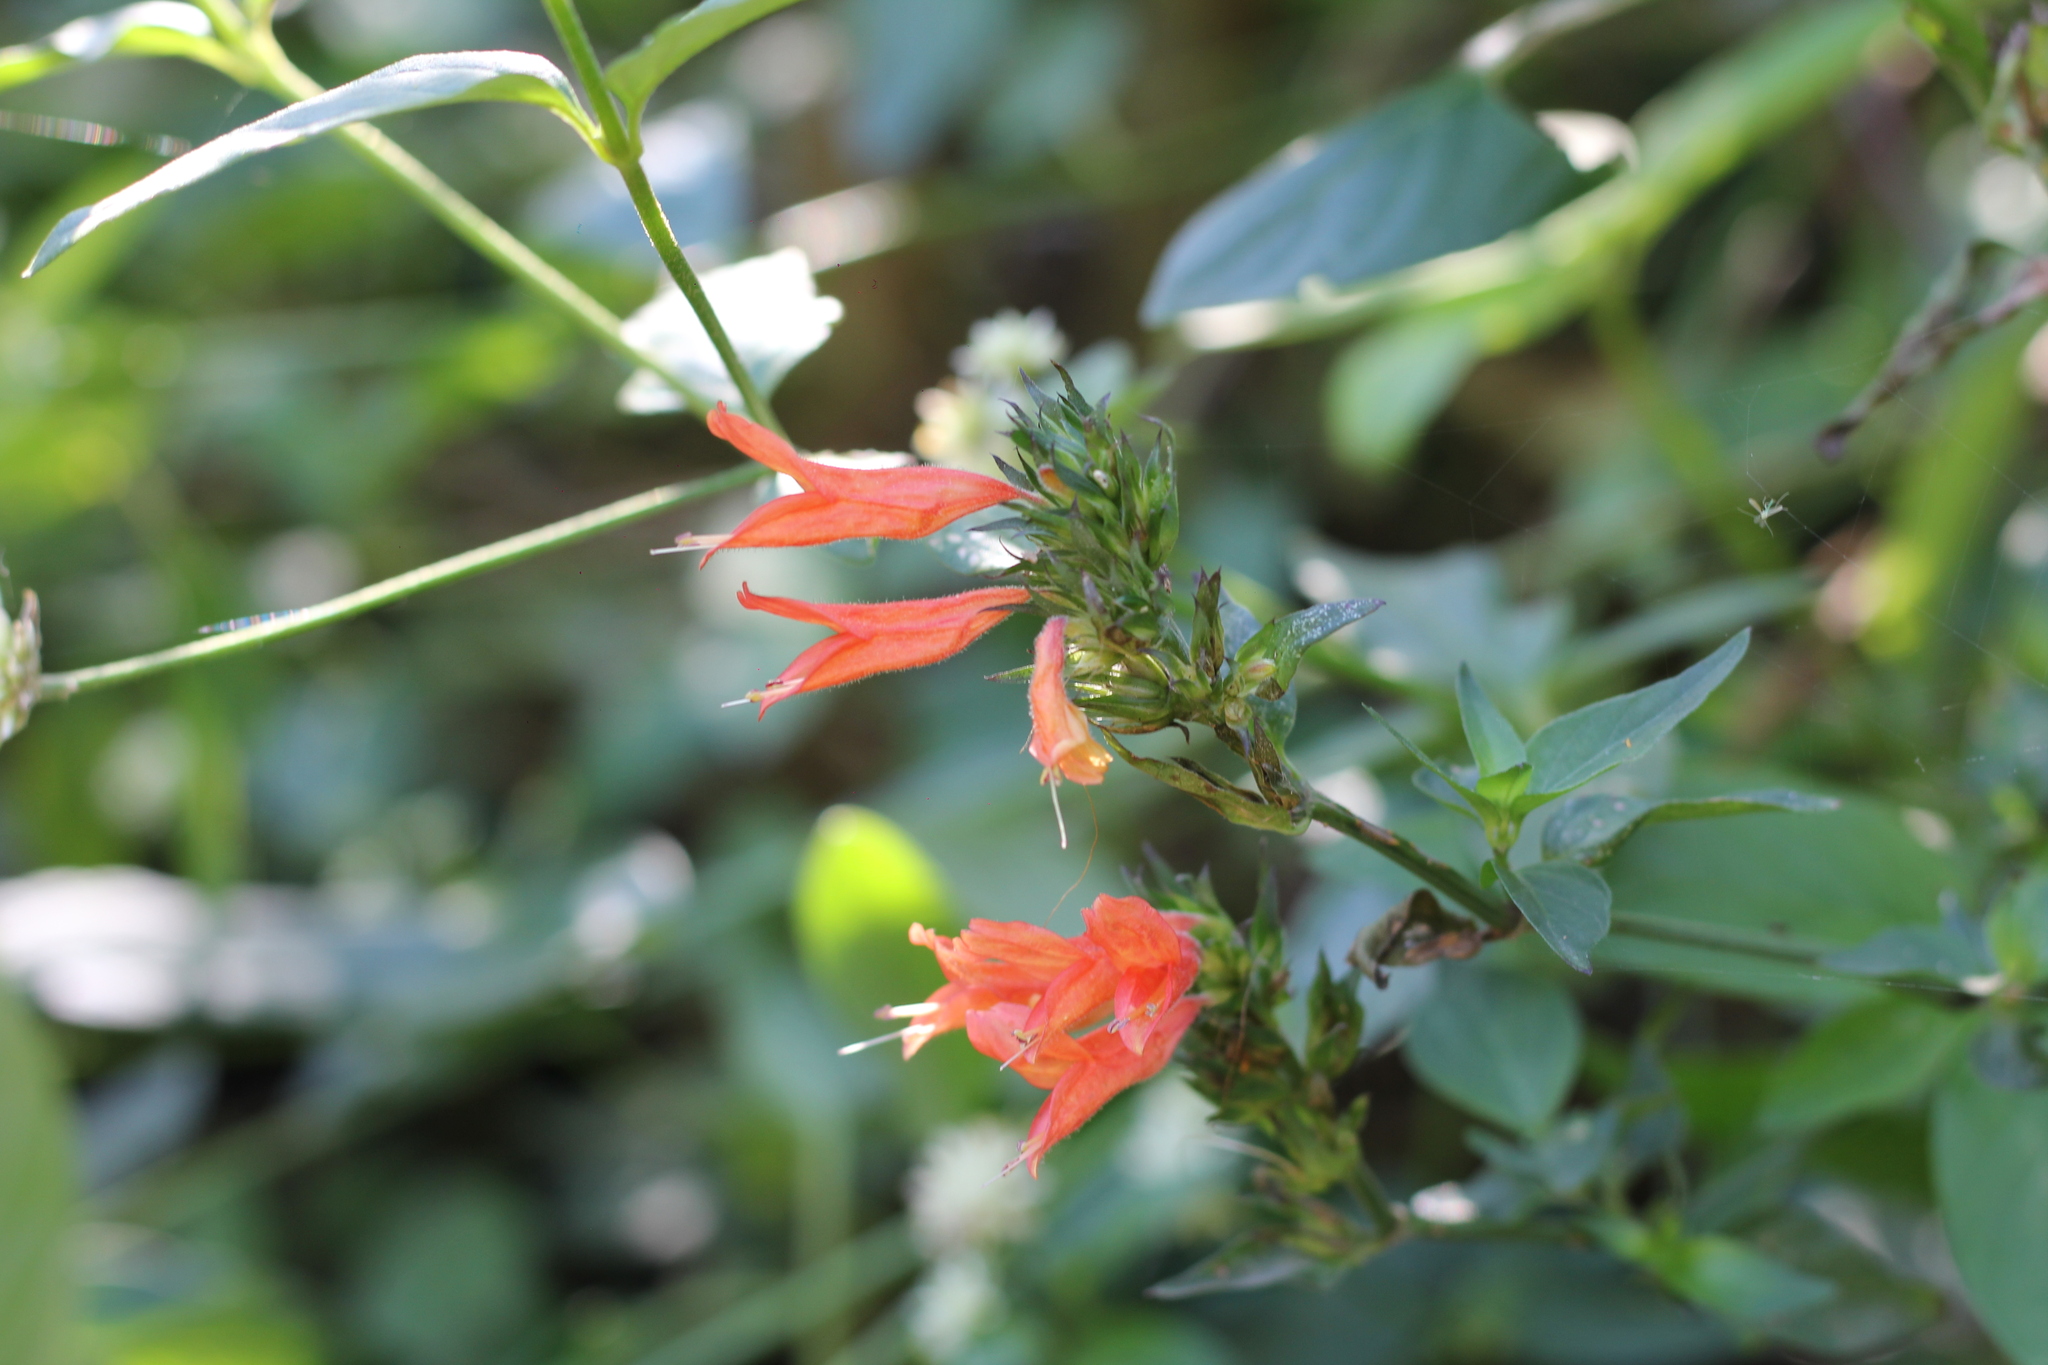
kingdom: Plantae
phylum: Tracheophyta
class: Magnoliopsida
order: Lamiales
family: Acanthaceae
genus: Dicliptera
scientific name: Dicliptera squarrosa
